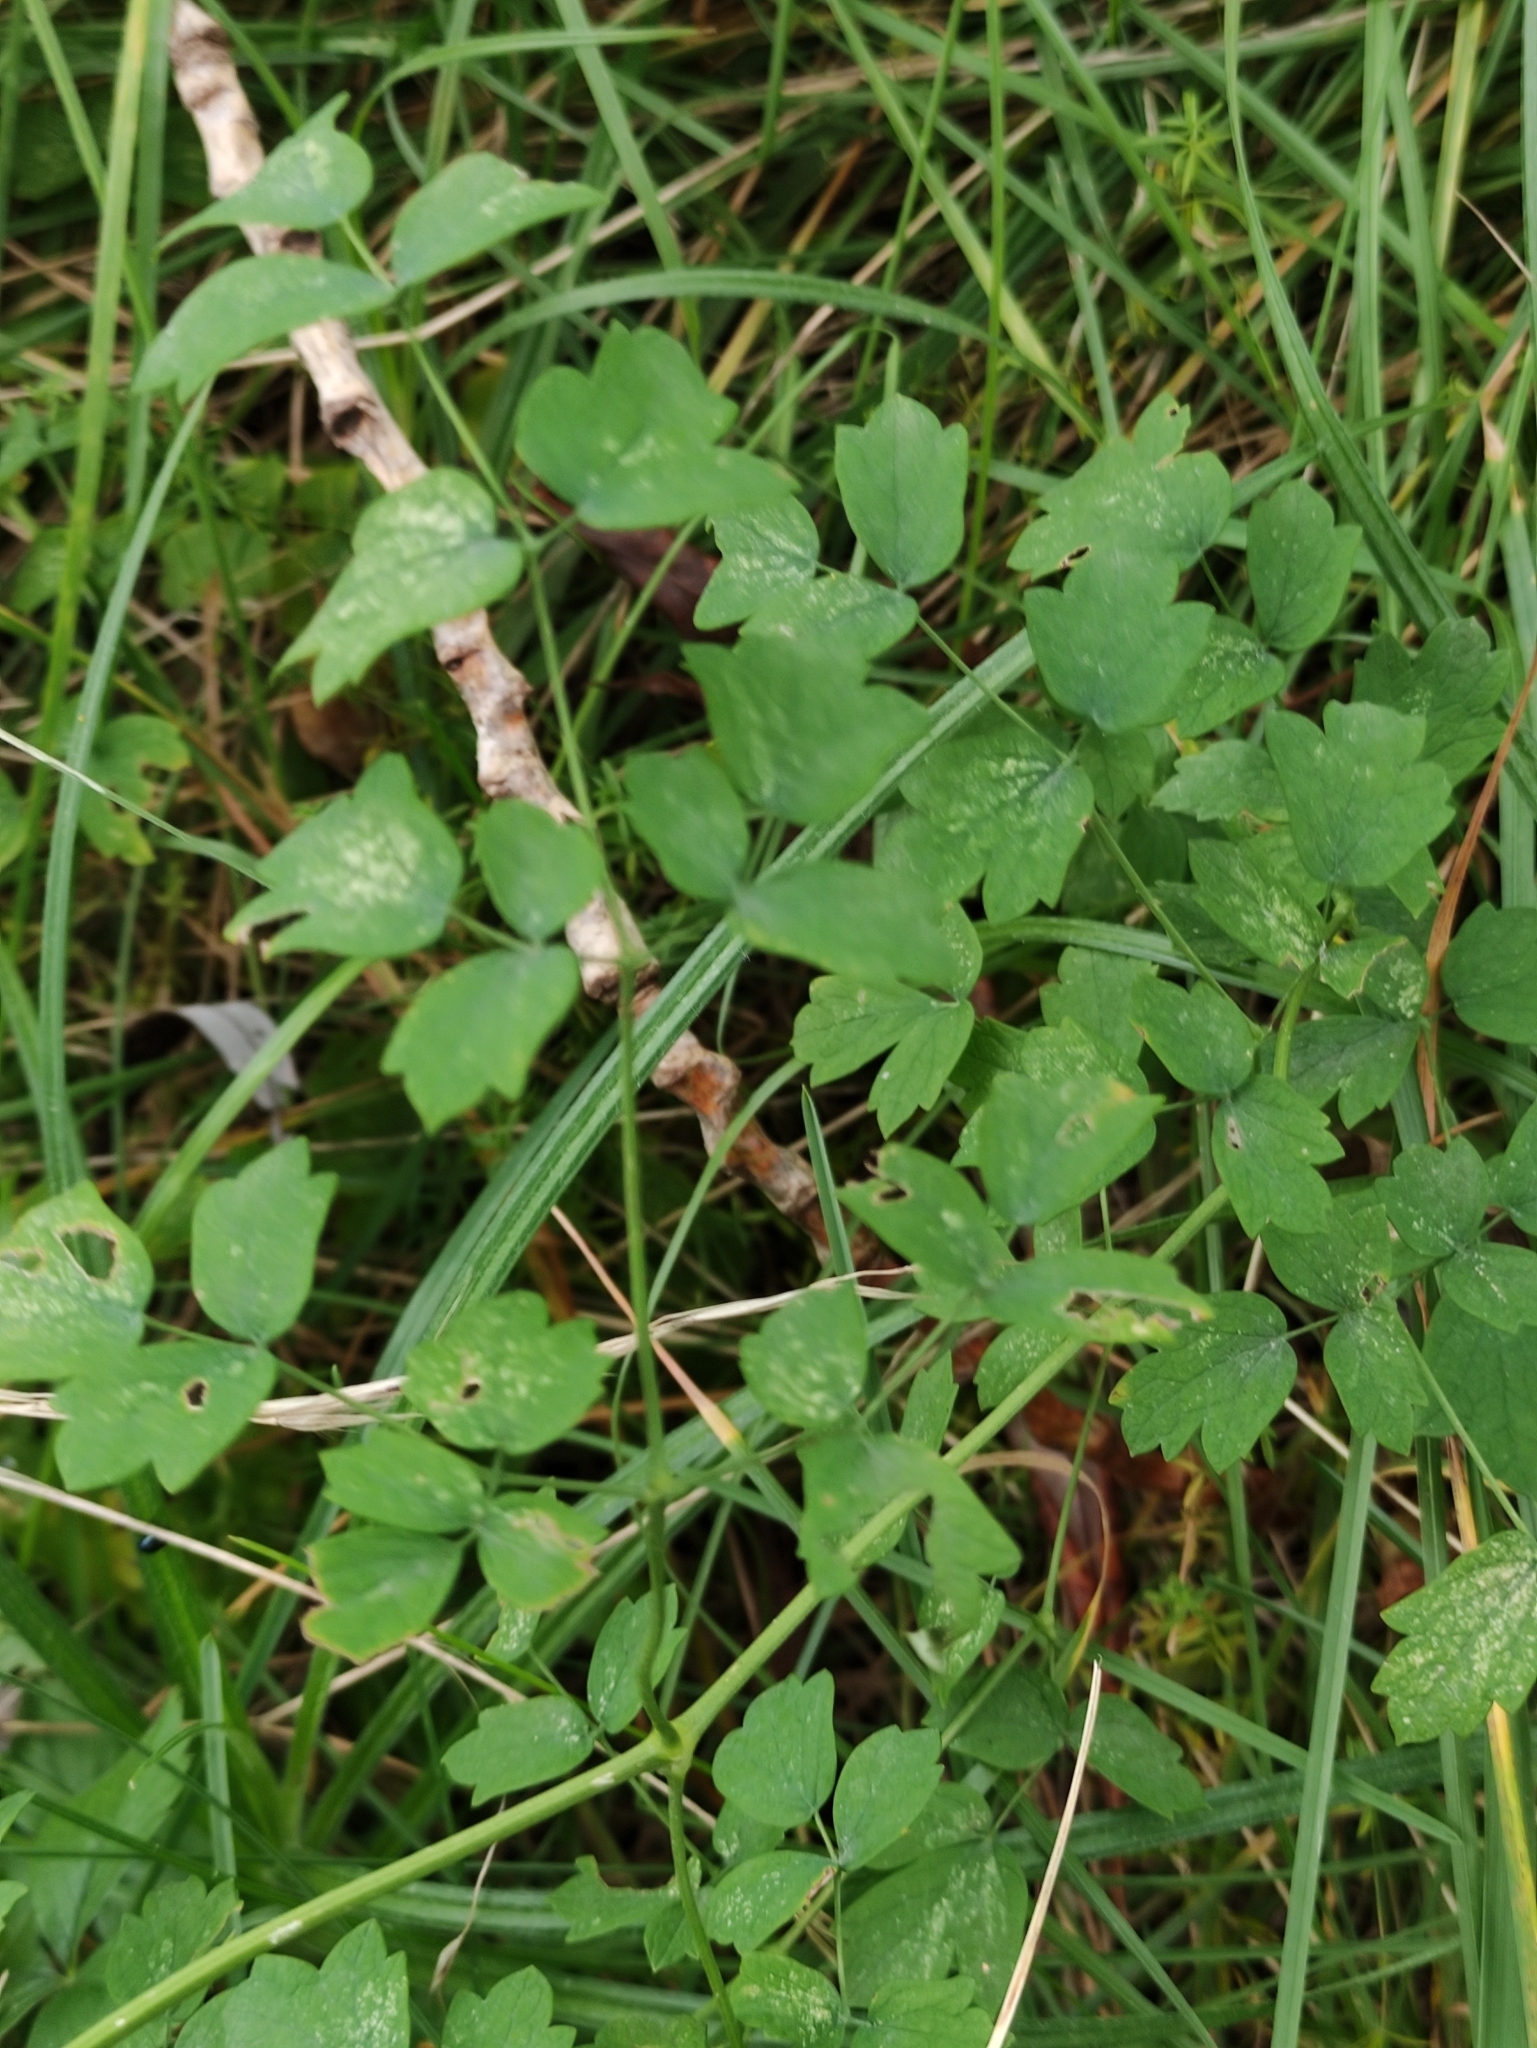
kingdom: Plantae
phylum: Tracheophyta
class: Magnoliopsida
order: Ranunculales
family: Ranunculaceae
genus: Thalictrum
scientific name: Thalictrum aquilegiifolium
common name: French meadow-rue
